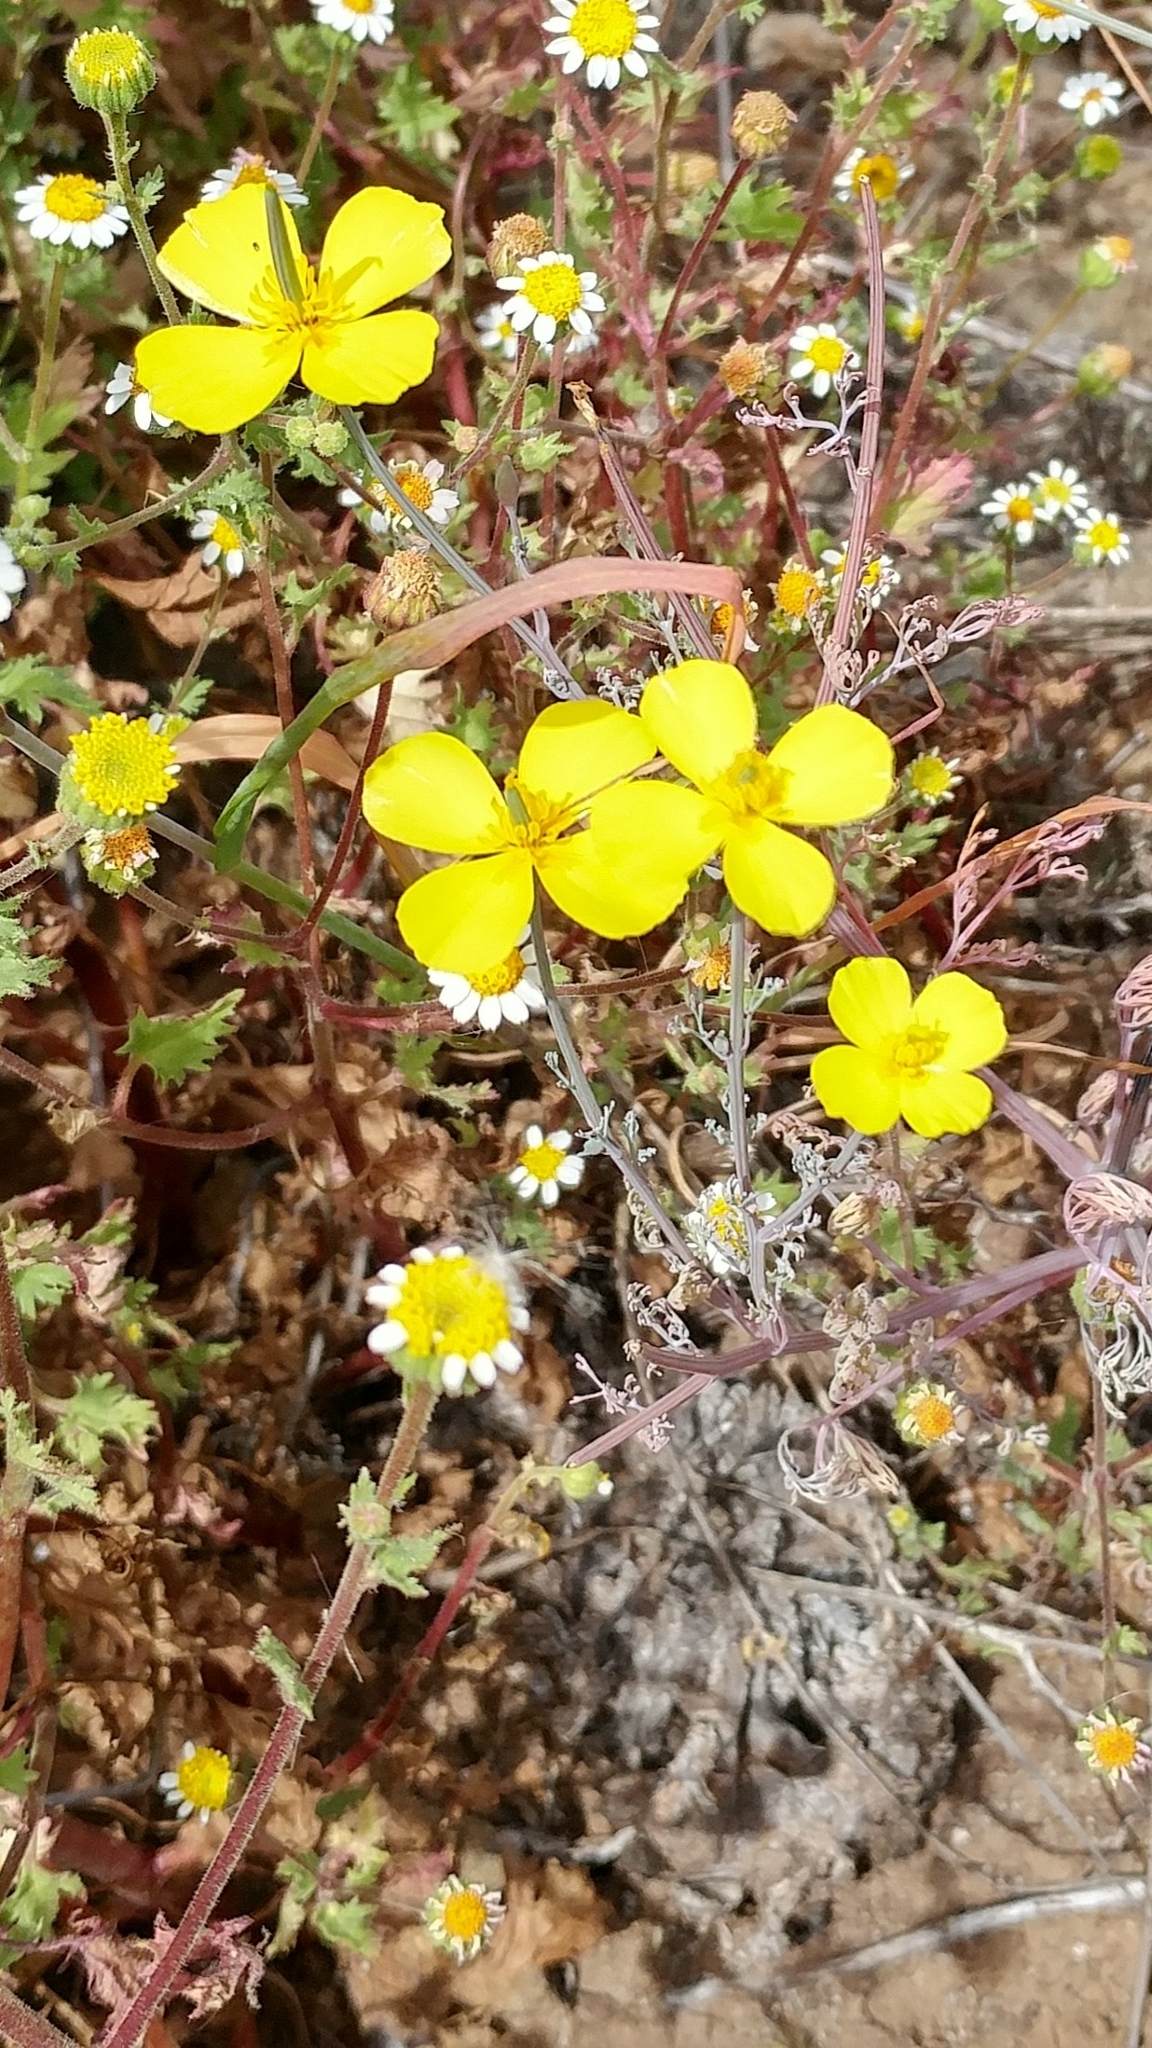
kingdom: Plantae
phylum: Tracheophyta
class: Magnoliopsida
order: Ranunculales
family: Papaveraceae
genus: Eschscholzia
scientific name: Eschscholzia ramosa
